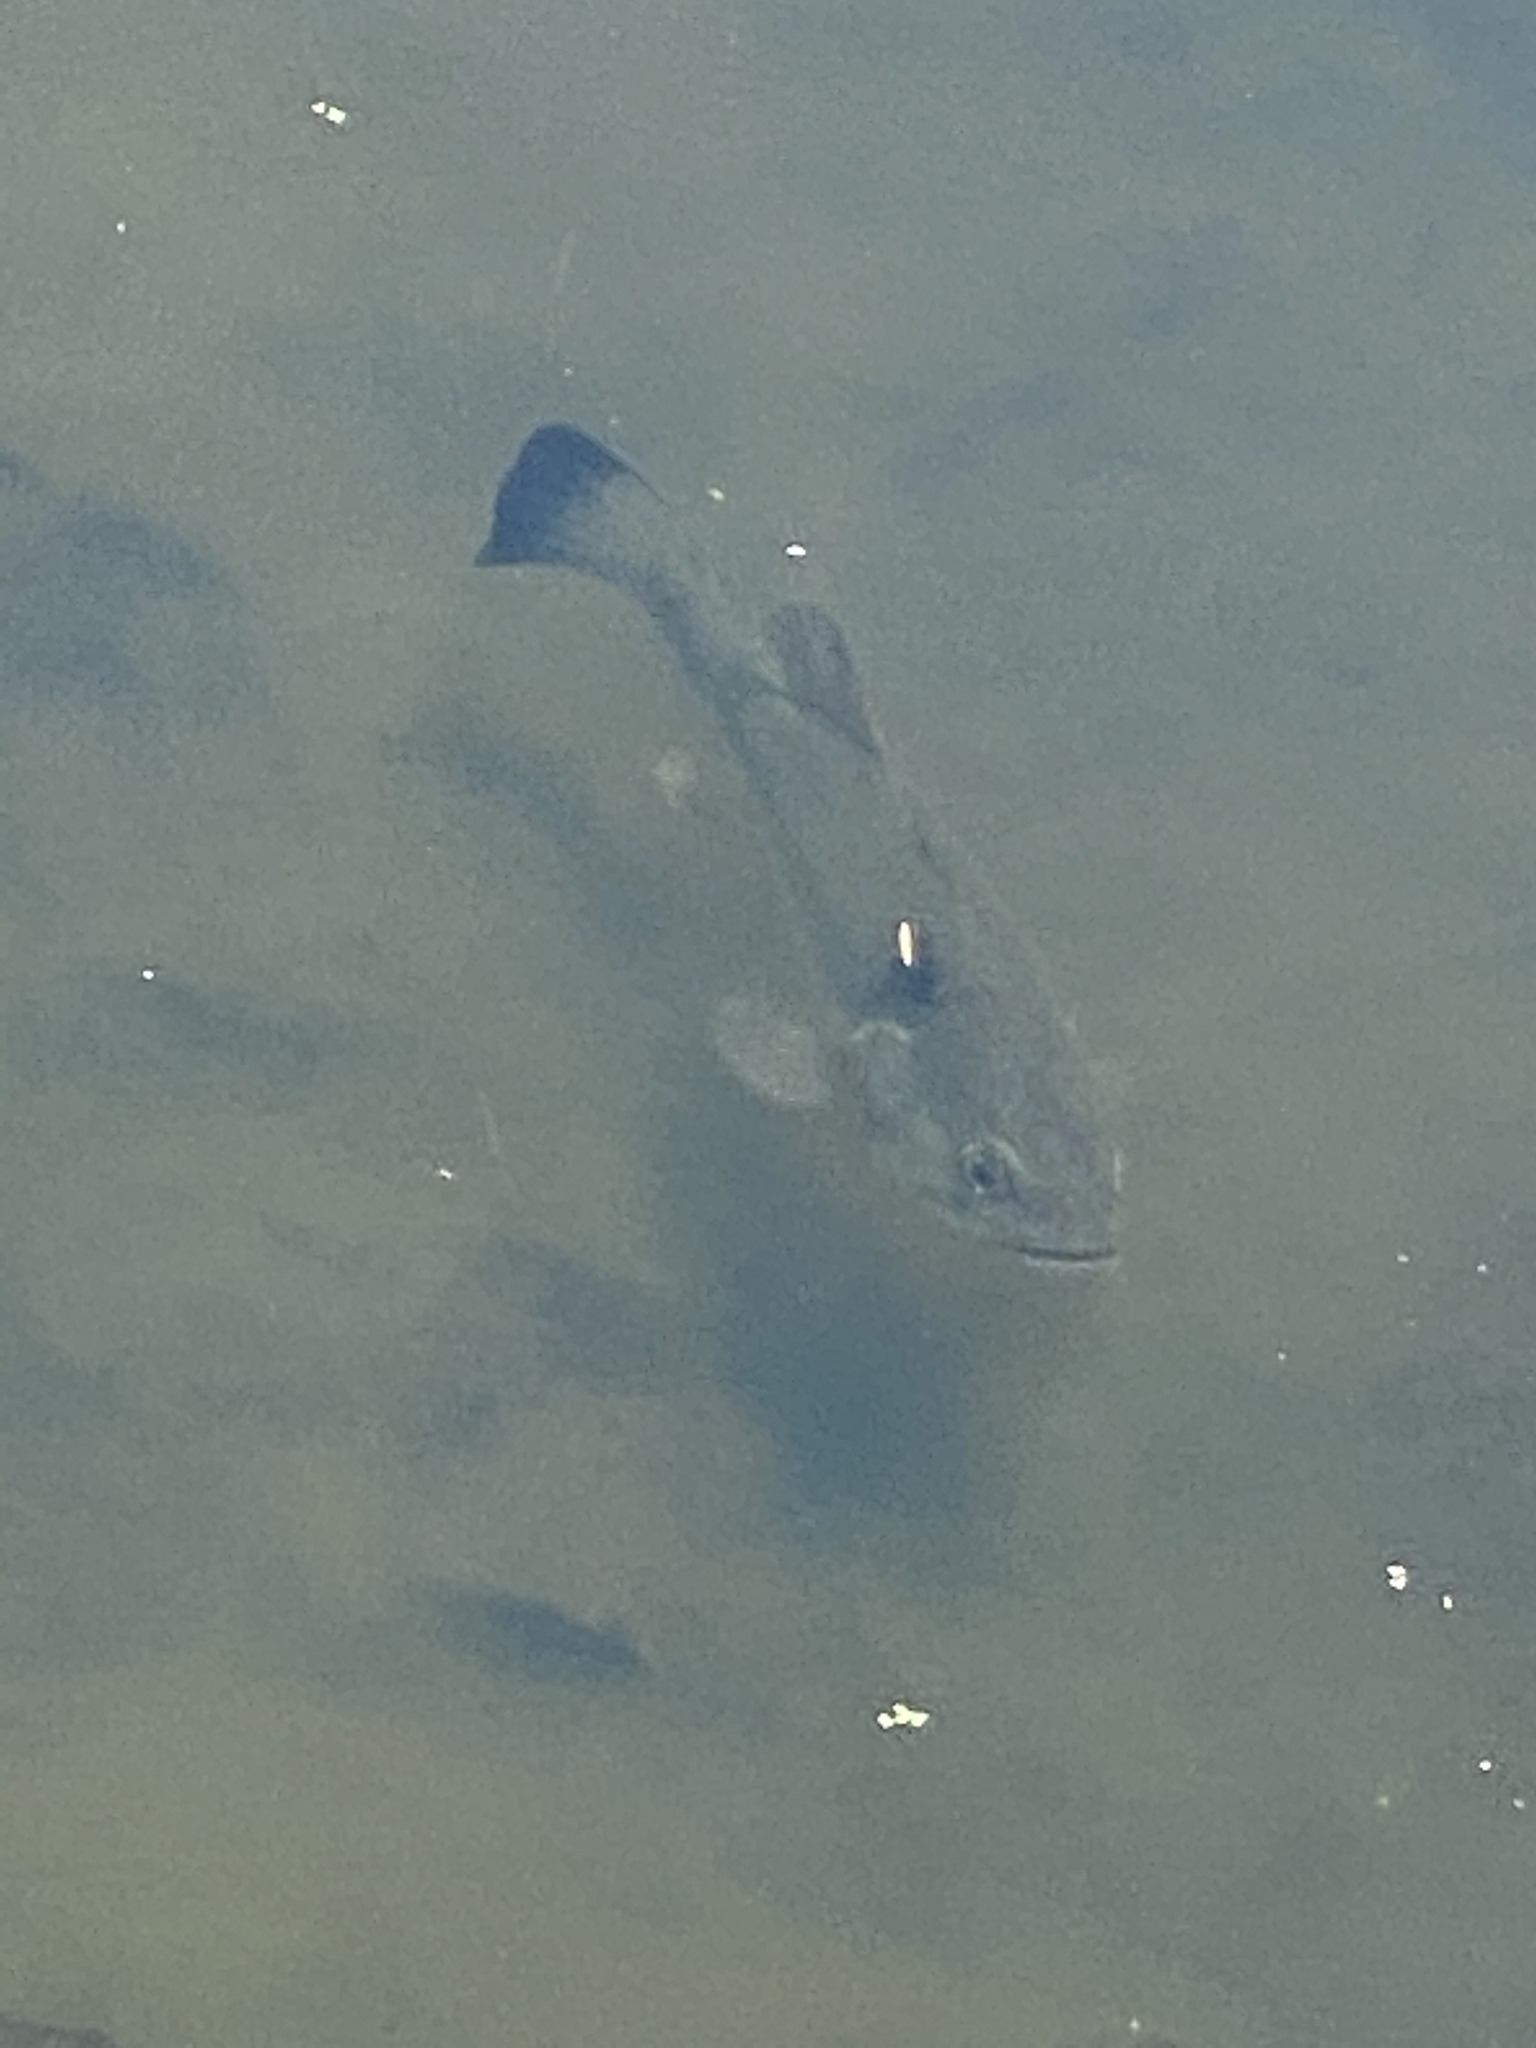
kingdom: Animalia
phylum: Chordata
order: Perciformes
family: Centrarchidae
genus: Micropterus
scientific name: Micropterus
